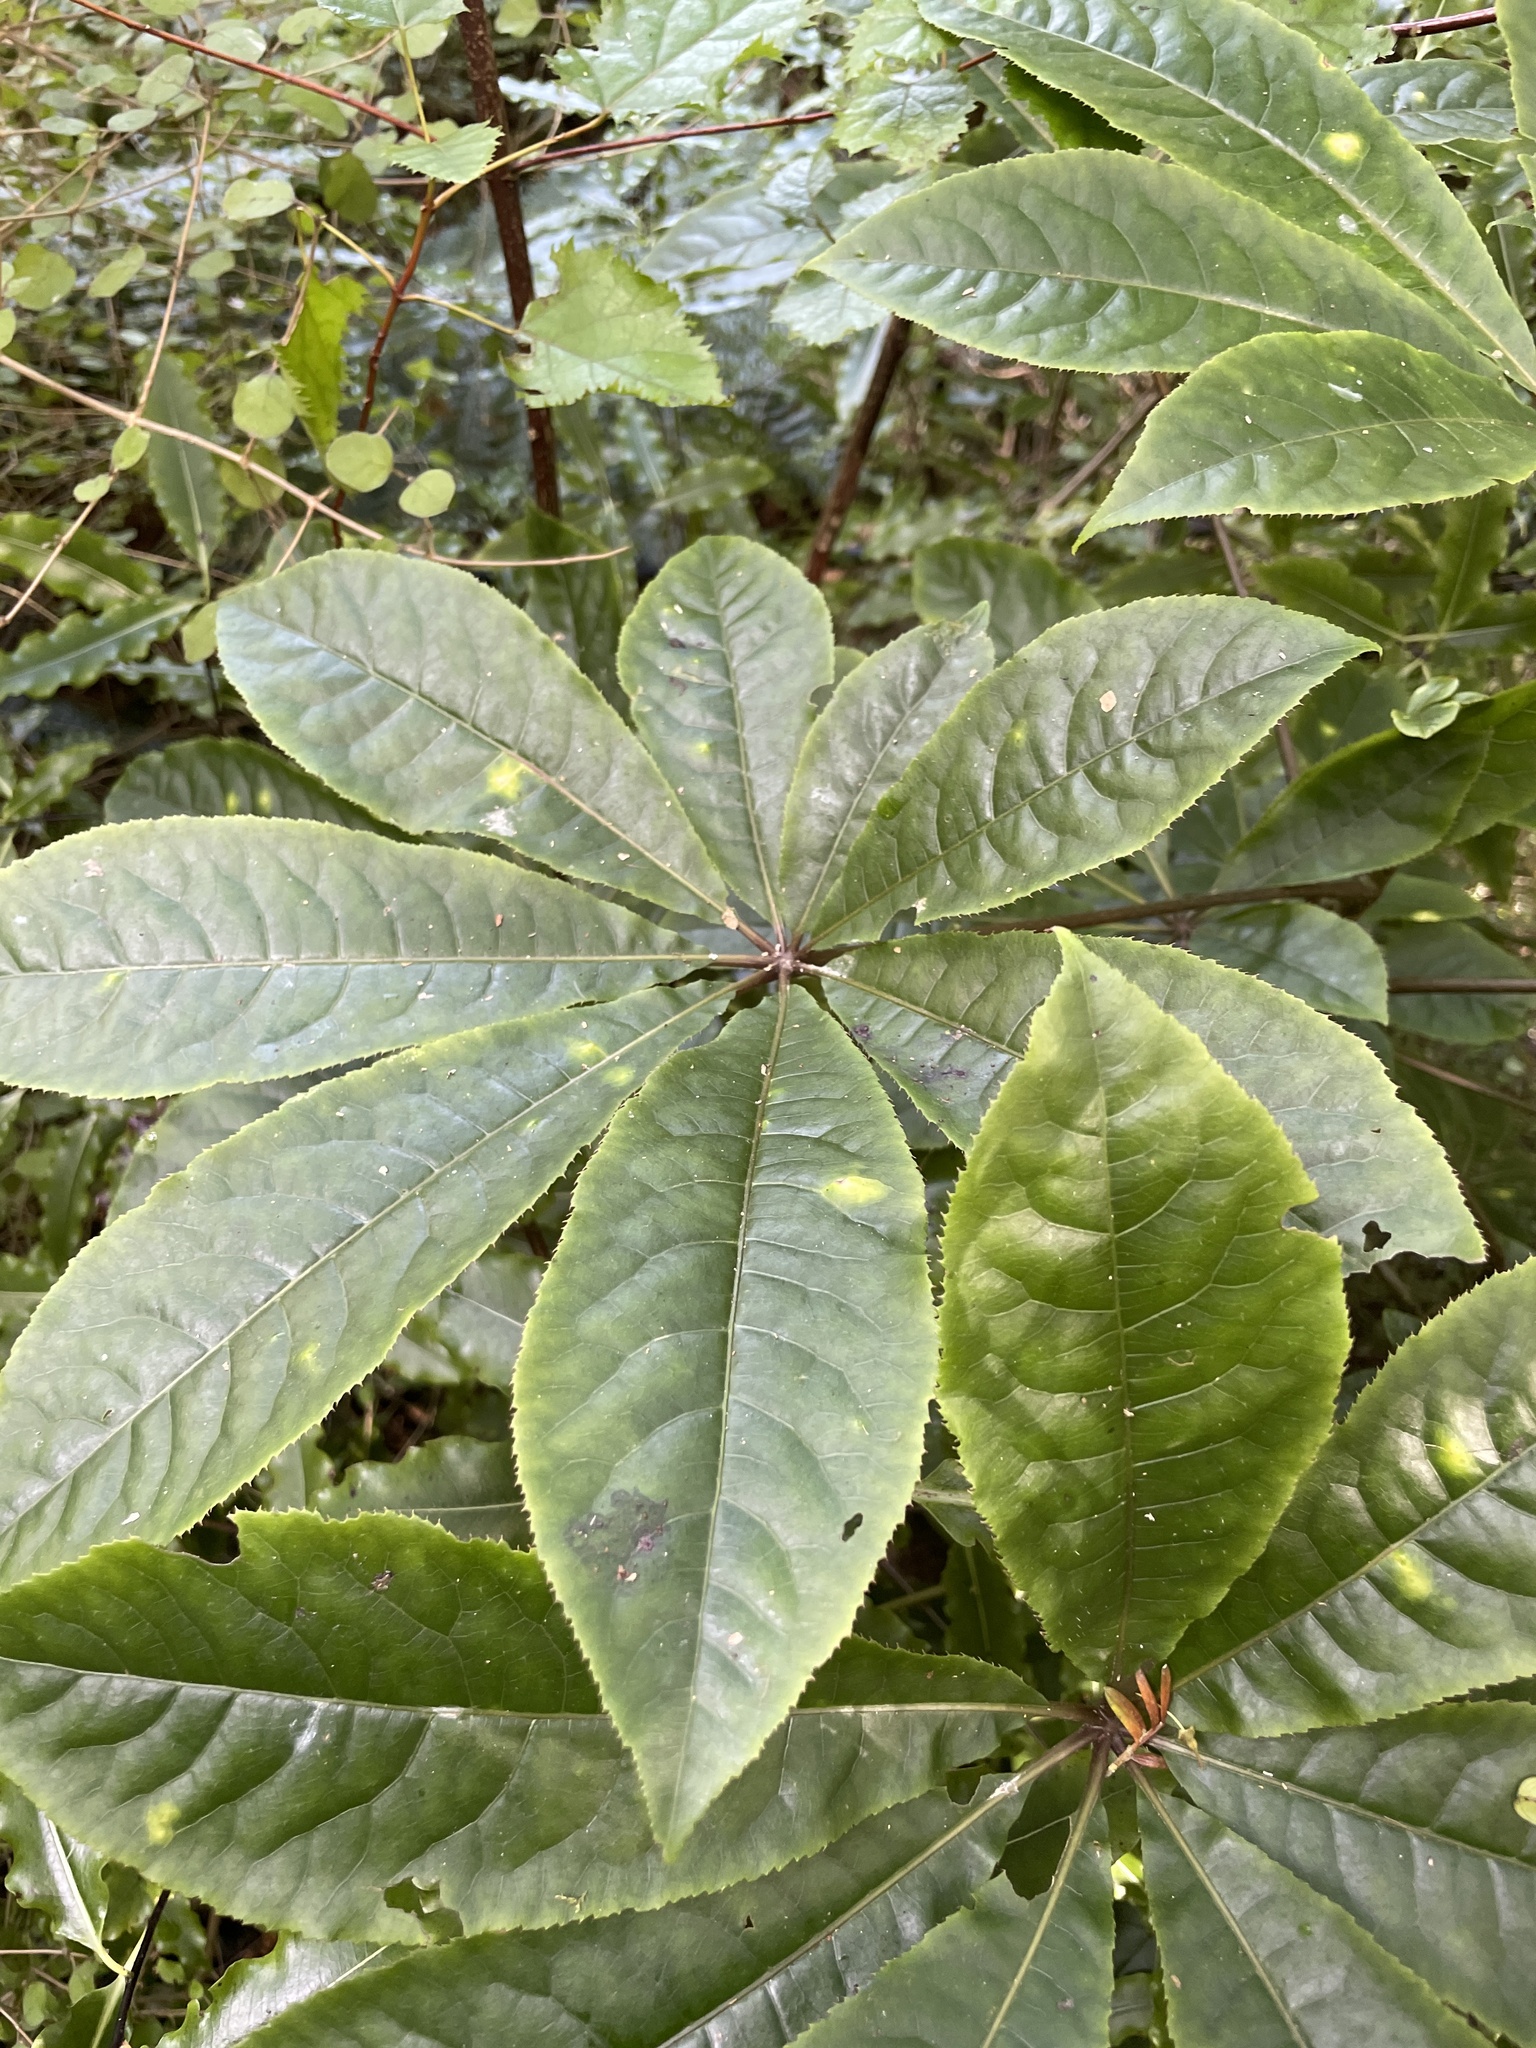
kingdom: Plantae
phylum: Tracheophyta
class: Magnoliopsida
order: Apiales
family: Araliaceae
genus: Schefflera
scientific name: Schefflera digitata
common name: Pate
